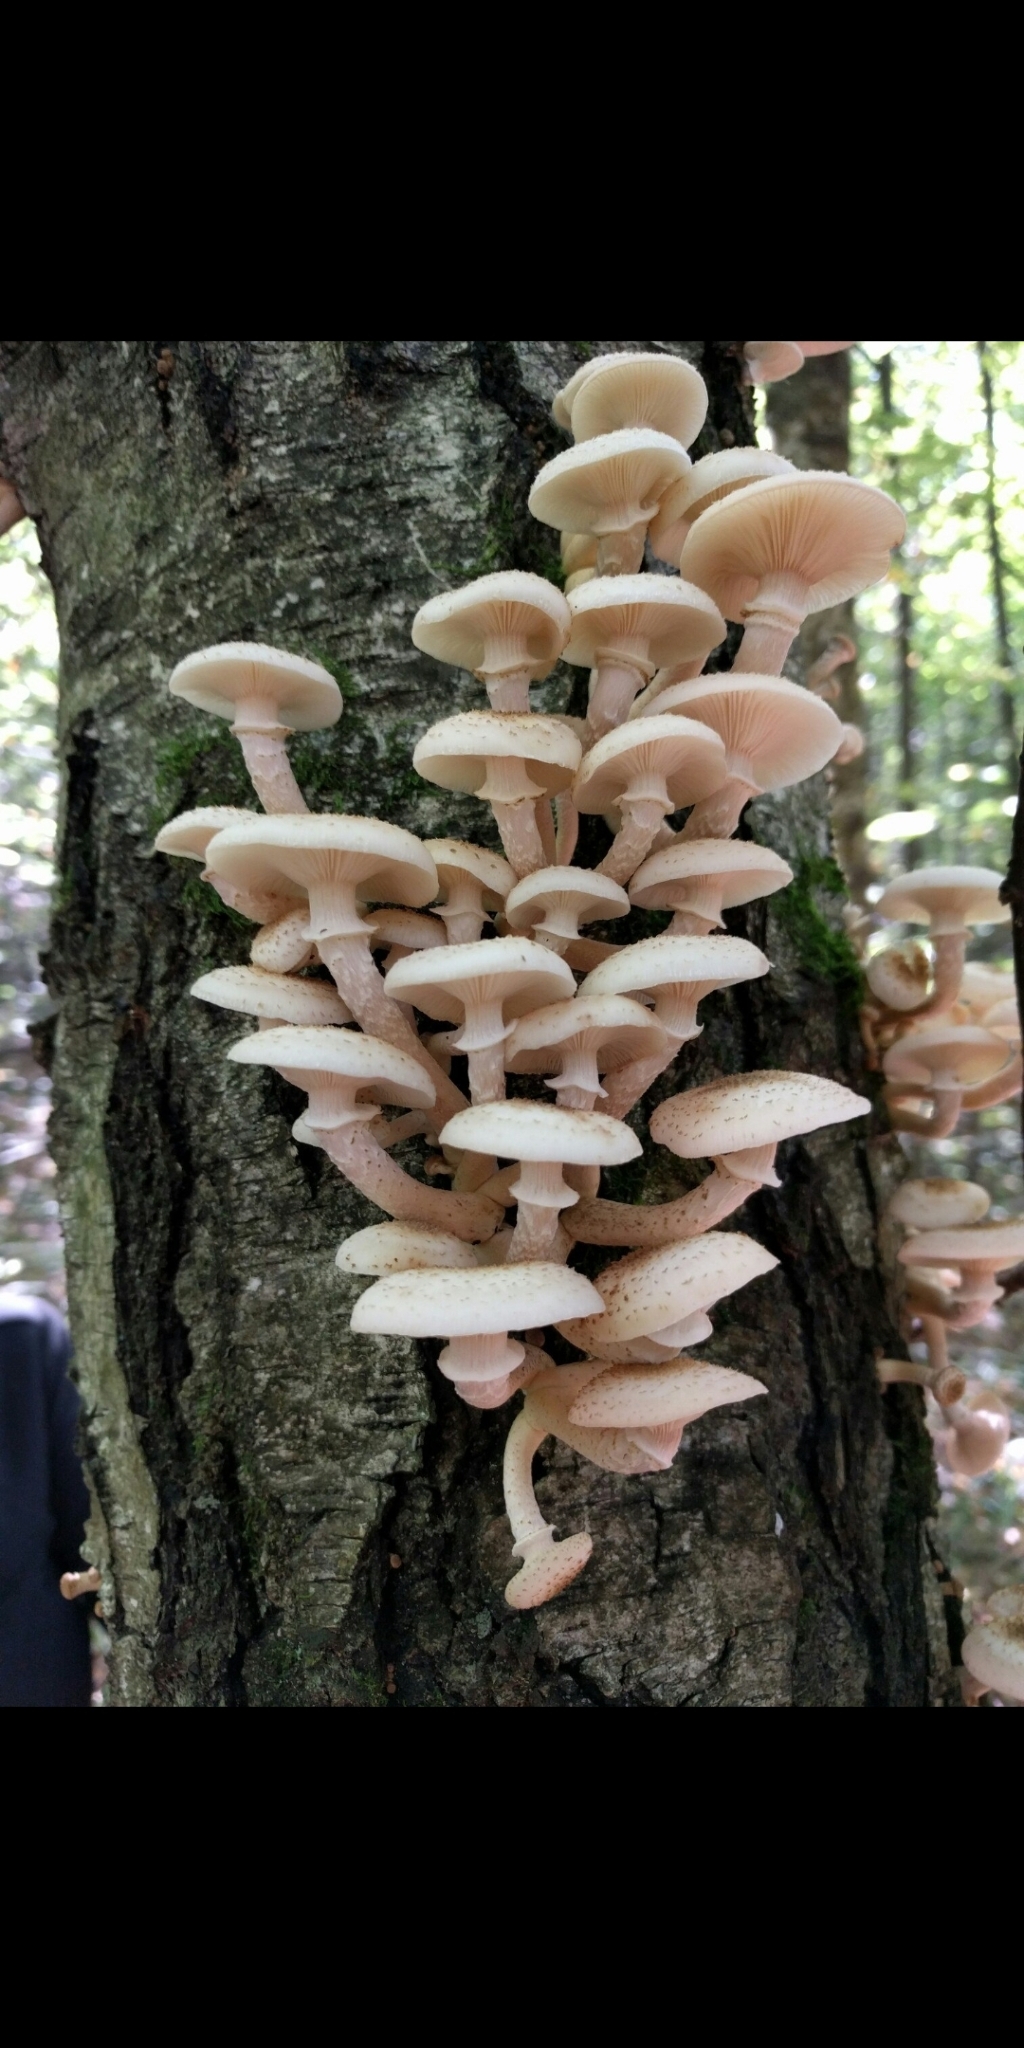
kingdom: Fungi
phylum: Basidiomycota
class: Agaricomycetes
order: Agaricales
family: Physalacriaceae
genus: Armillaria
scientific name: Armillaria borealis
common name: Northern honey fungus
